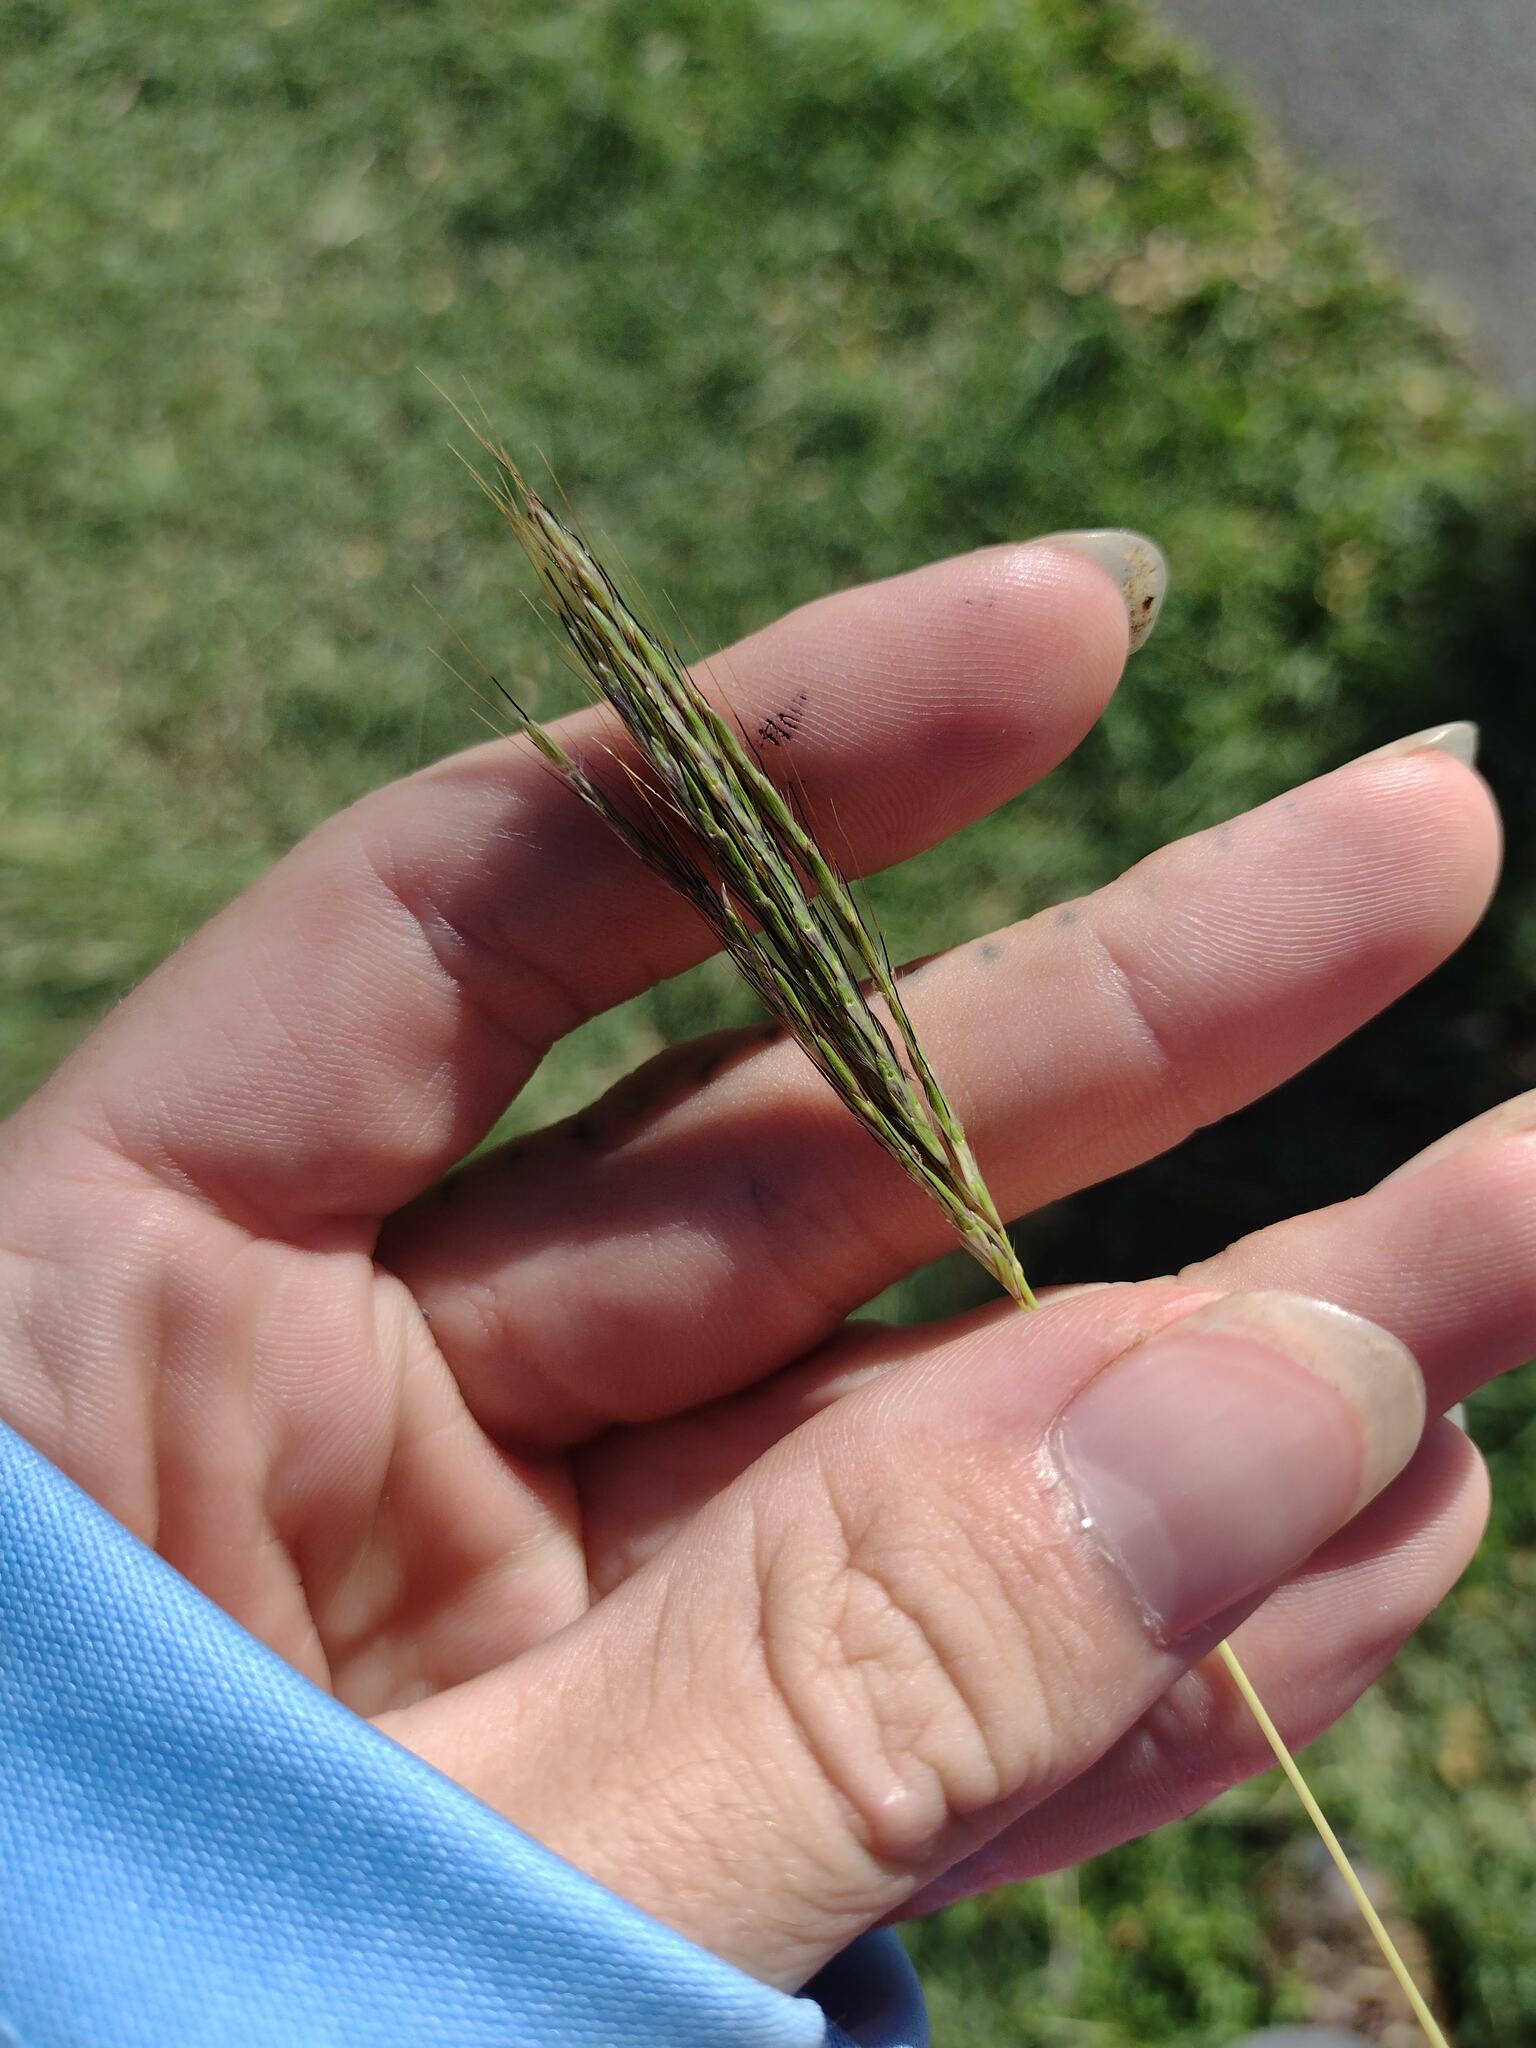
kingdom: Plantae
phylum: Tracheophyta
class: Liliopsida
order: Poales
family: Poaceae
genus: Bothriochloa
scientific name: Bothriochloa pertusa
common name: Pitted beardgrass
